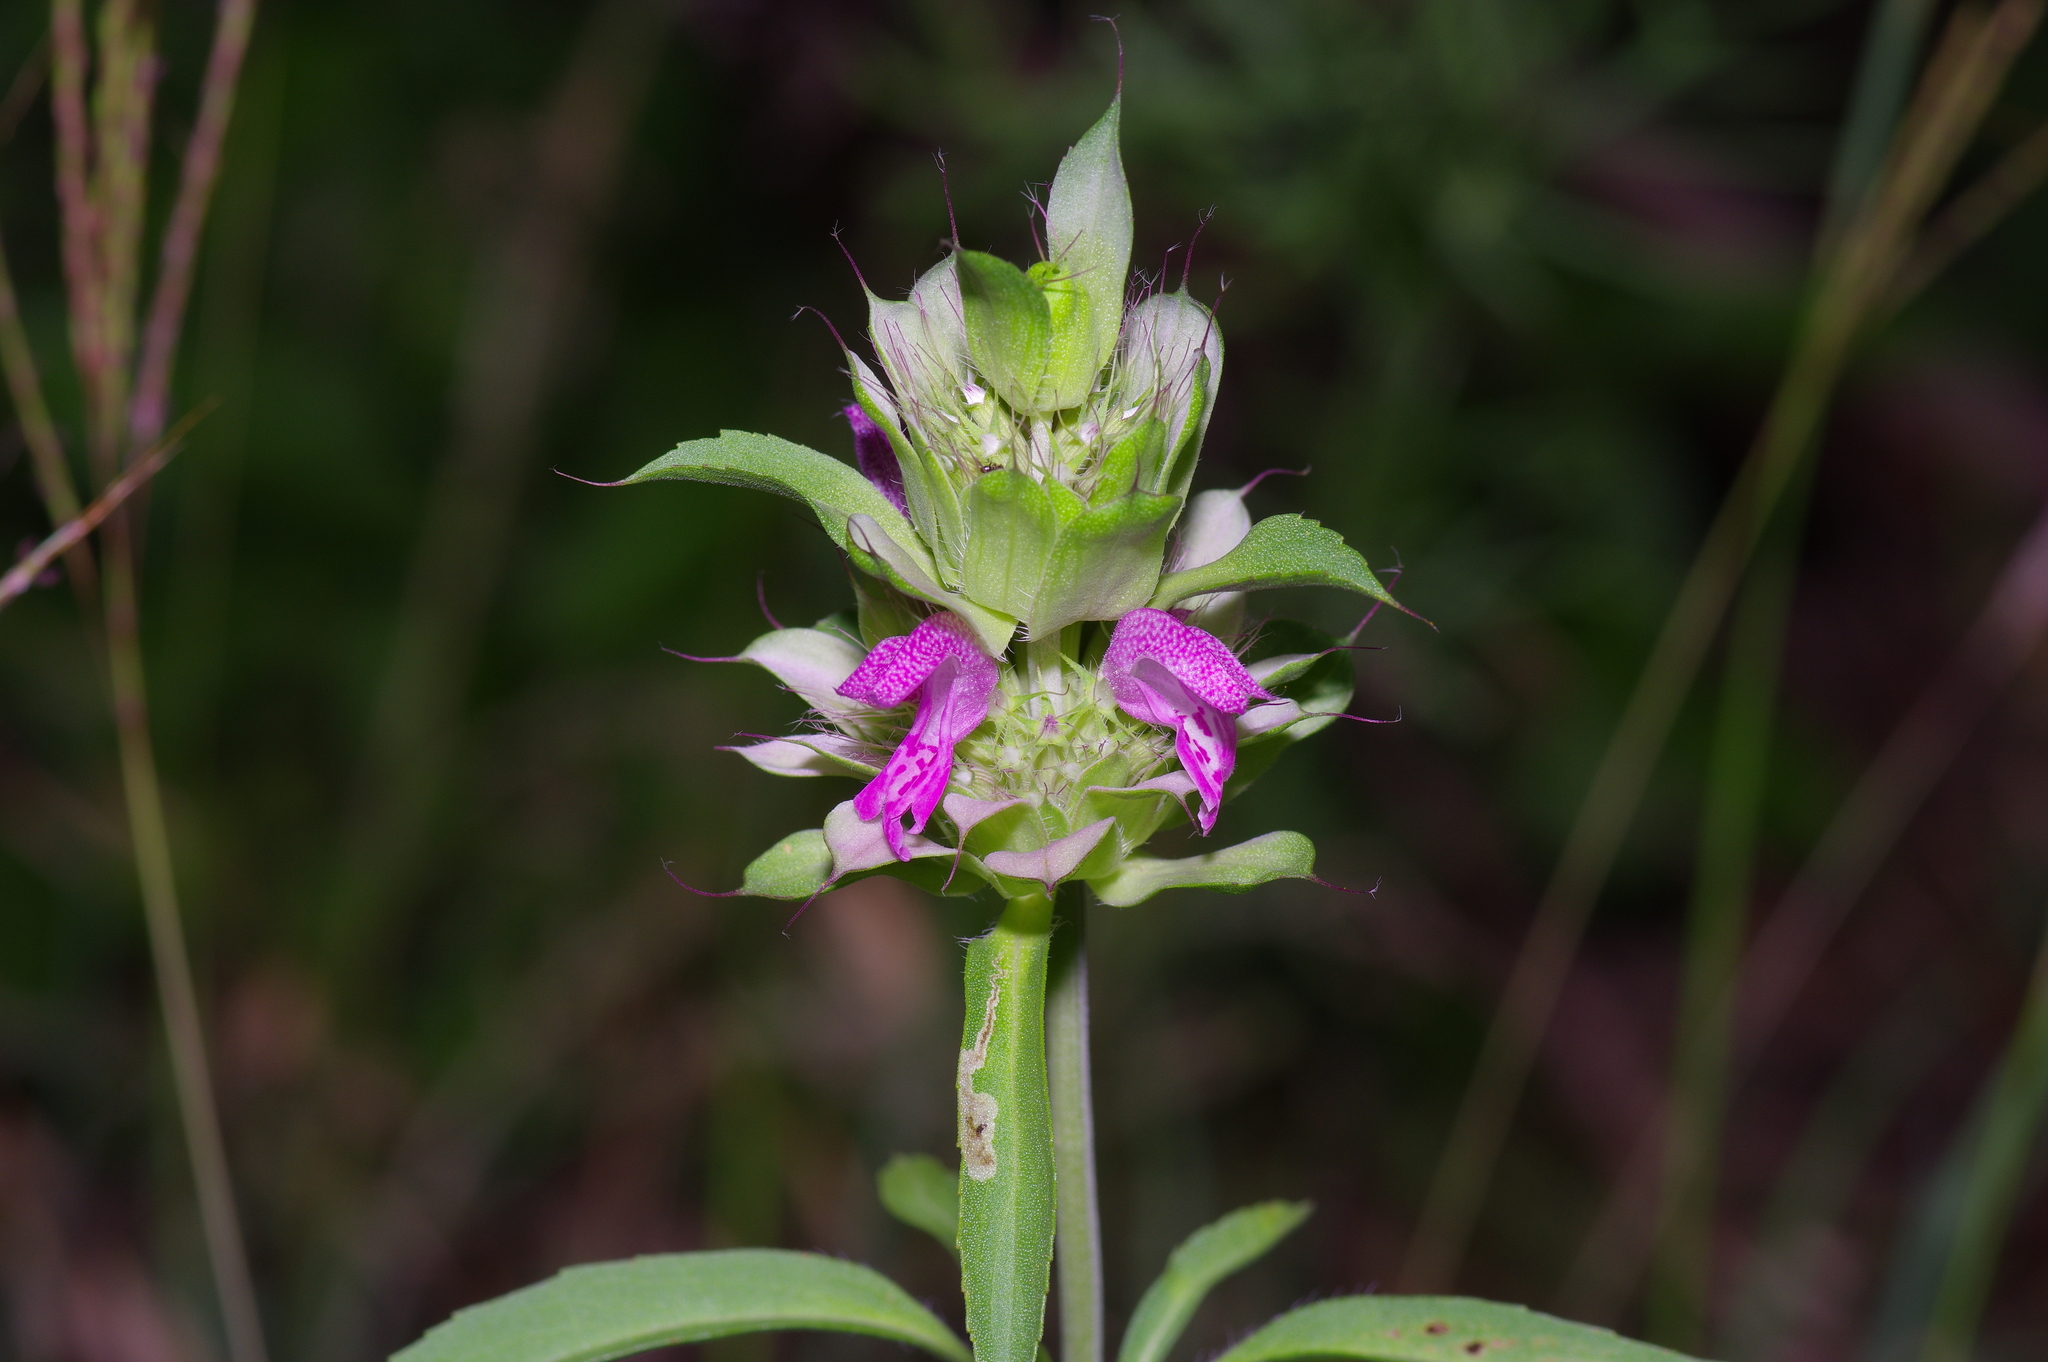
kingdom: Plantae
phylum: Tracheophyta
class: Magnoliopsida
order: Lamiales
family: Lamiaceae
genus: Monarda
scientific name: Monarda citriodora
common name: Lemon beebalm
